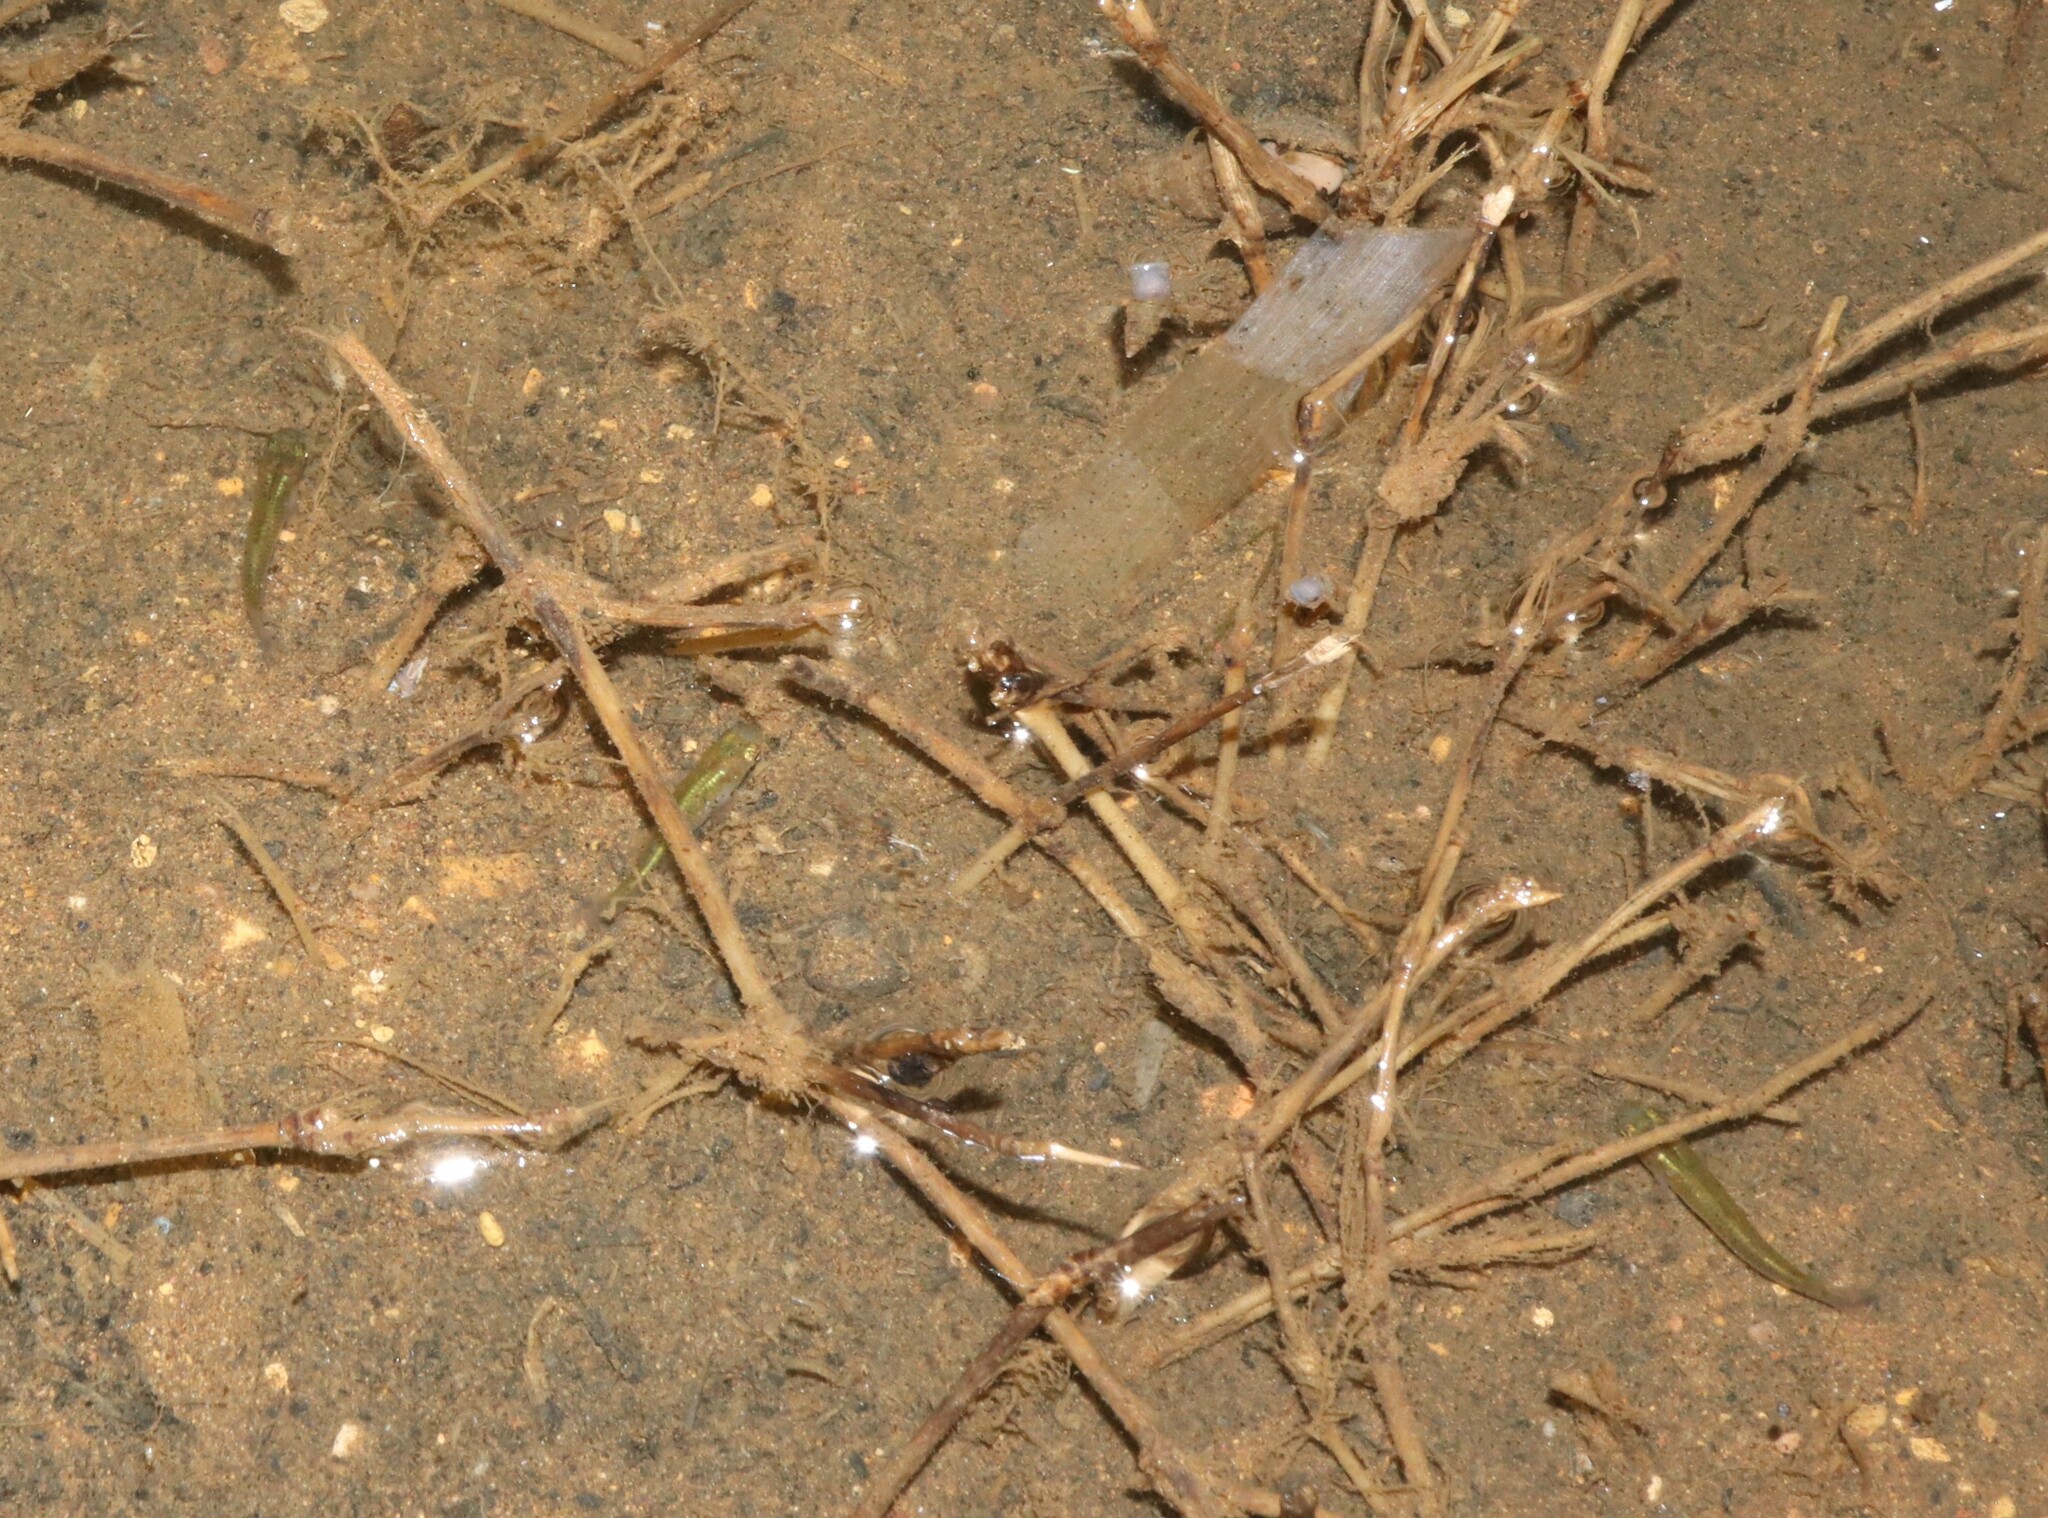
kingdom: Animalia
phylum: Chordata
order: Cyprinodontiformes
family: Poeciliidae
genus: Gambusia
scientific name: Gambusia holbrooki
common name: Eastern mosquitofish
